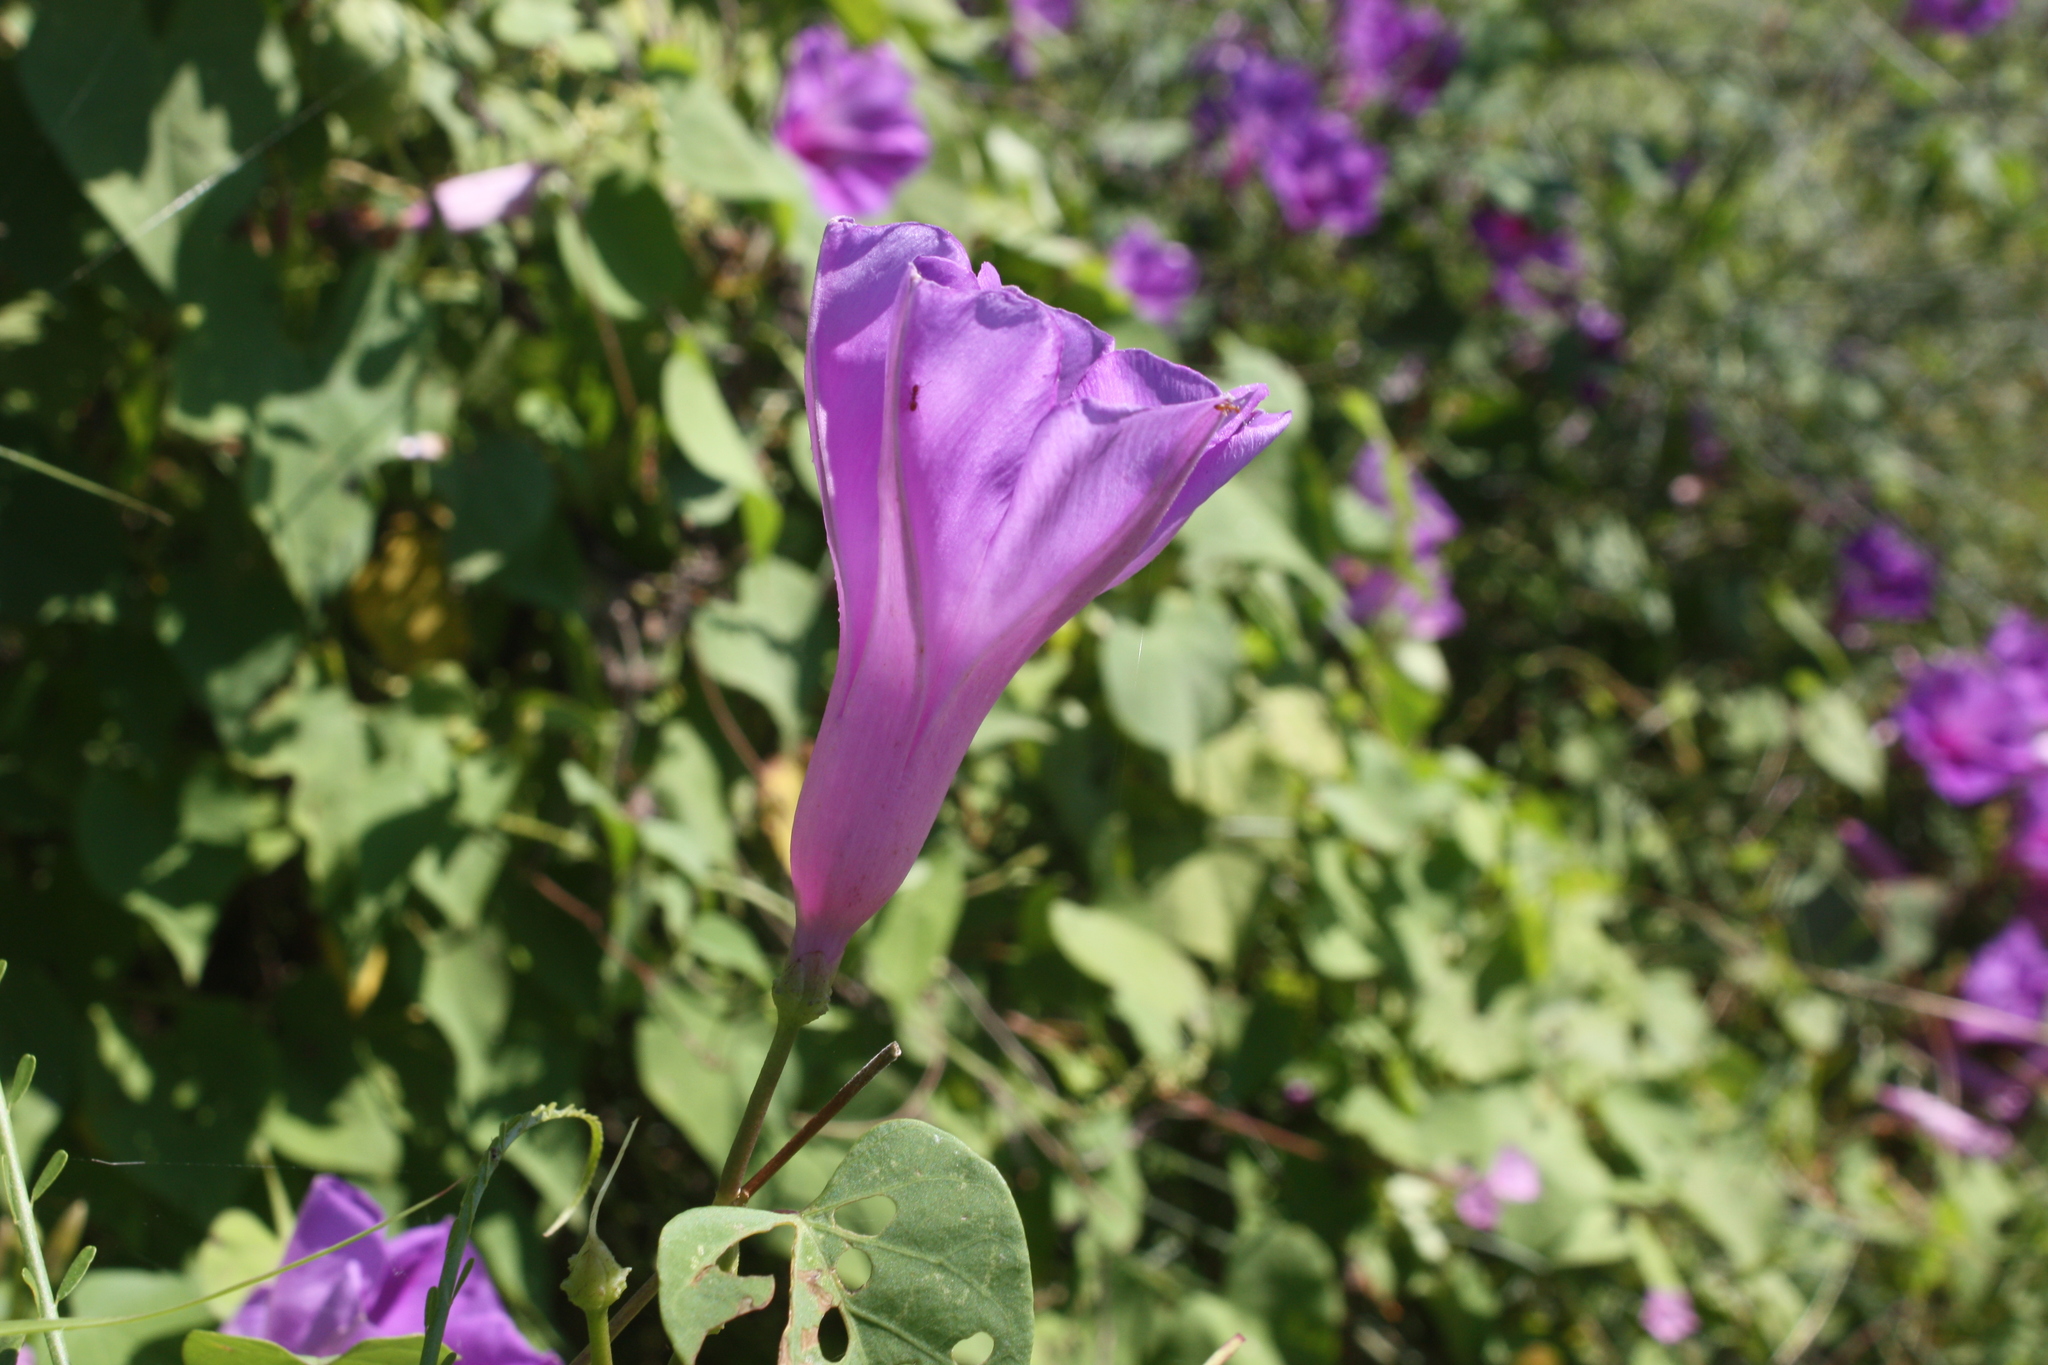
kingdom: Plantae
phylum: Tracheophyta
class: Magnoliopsida
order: Solanales
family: Convolvulaceae
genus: Ipomoea
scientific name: Ipomoea pedicellaris
